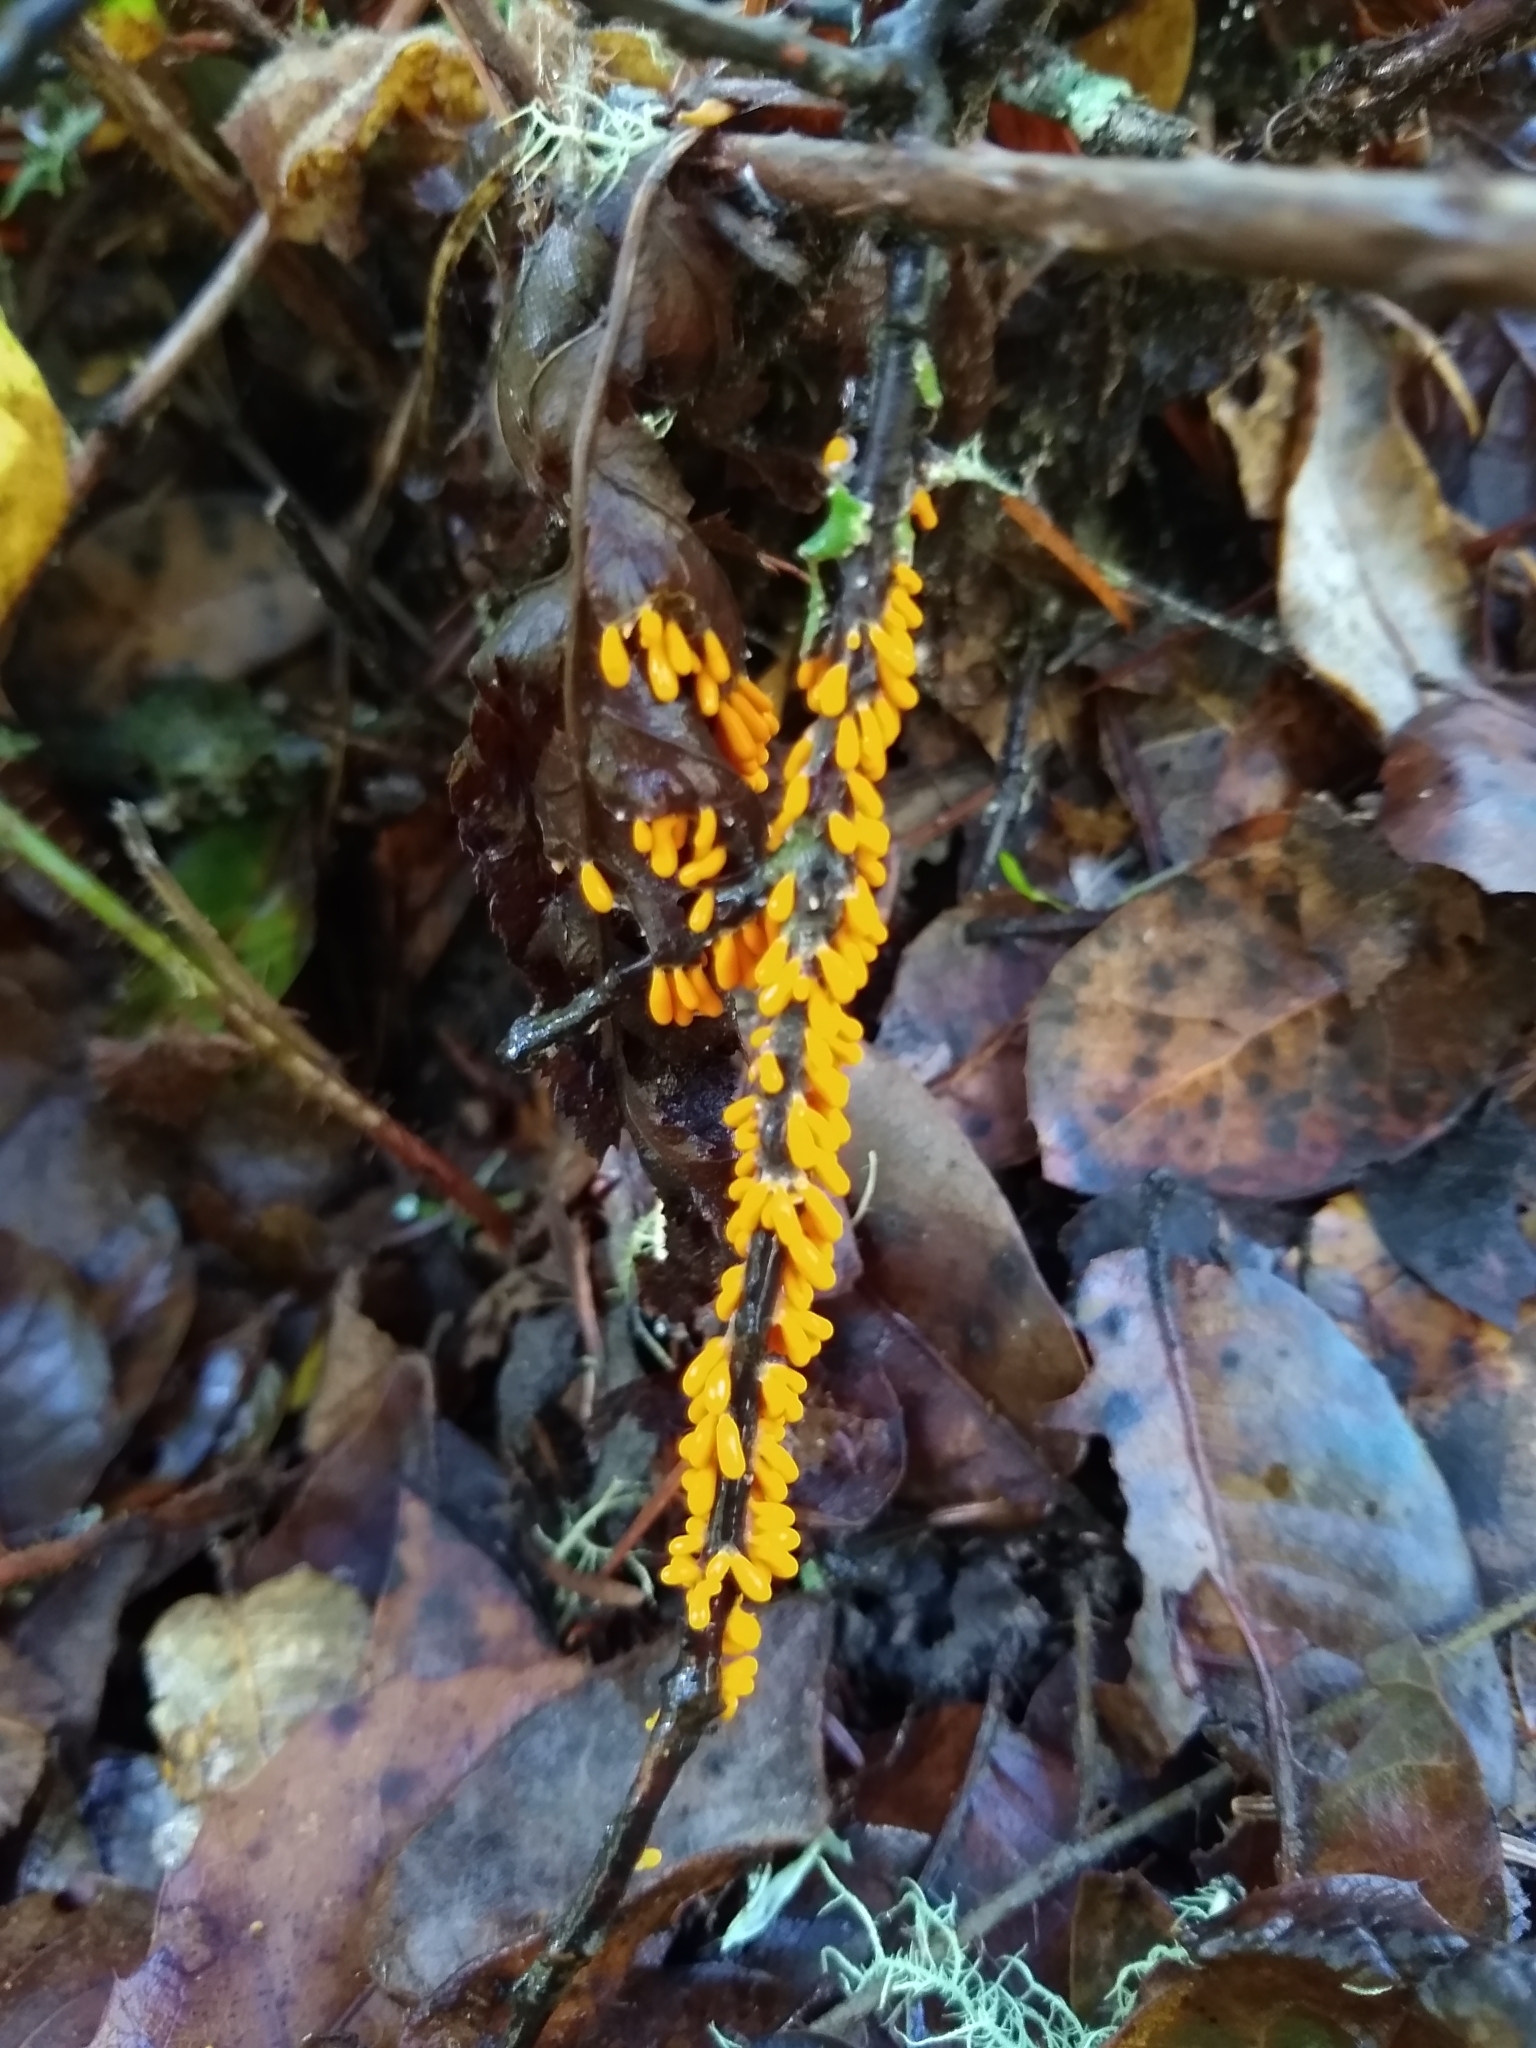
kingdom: Protozoa
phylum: Mycetozoa
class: Myxomycetes
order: Physarales
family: Physaraceae
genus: Leocarpus
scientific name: Leocarpus fragilis
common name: Insect-egg slime
